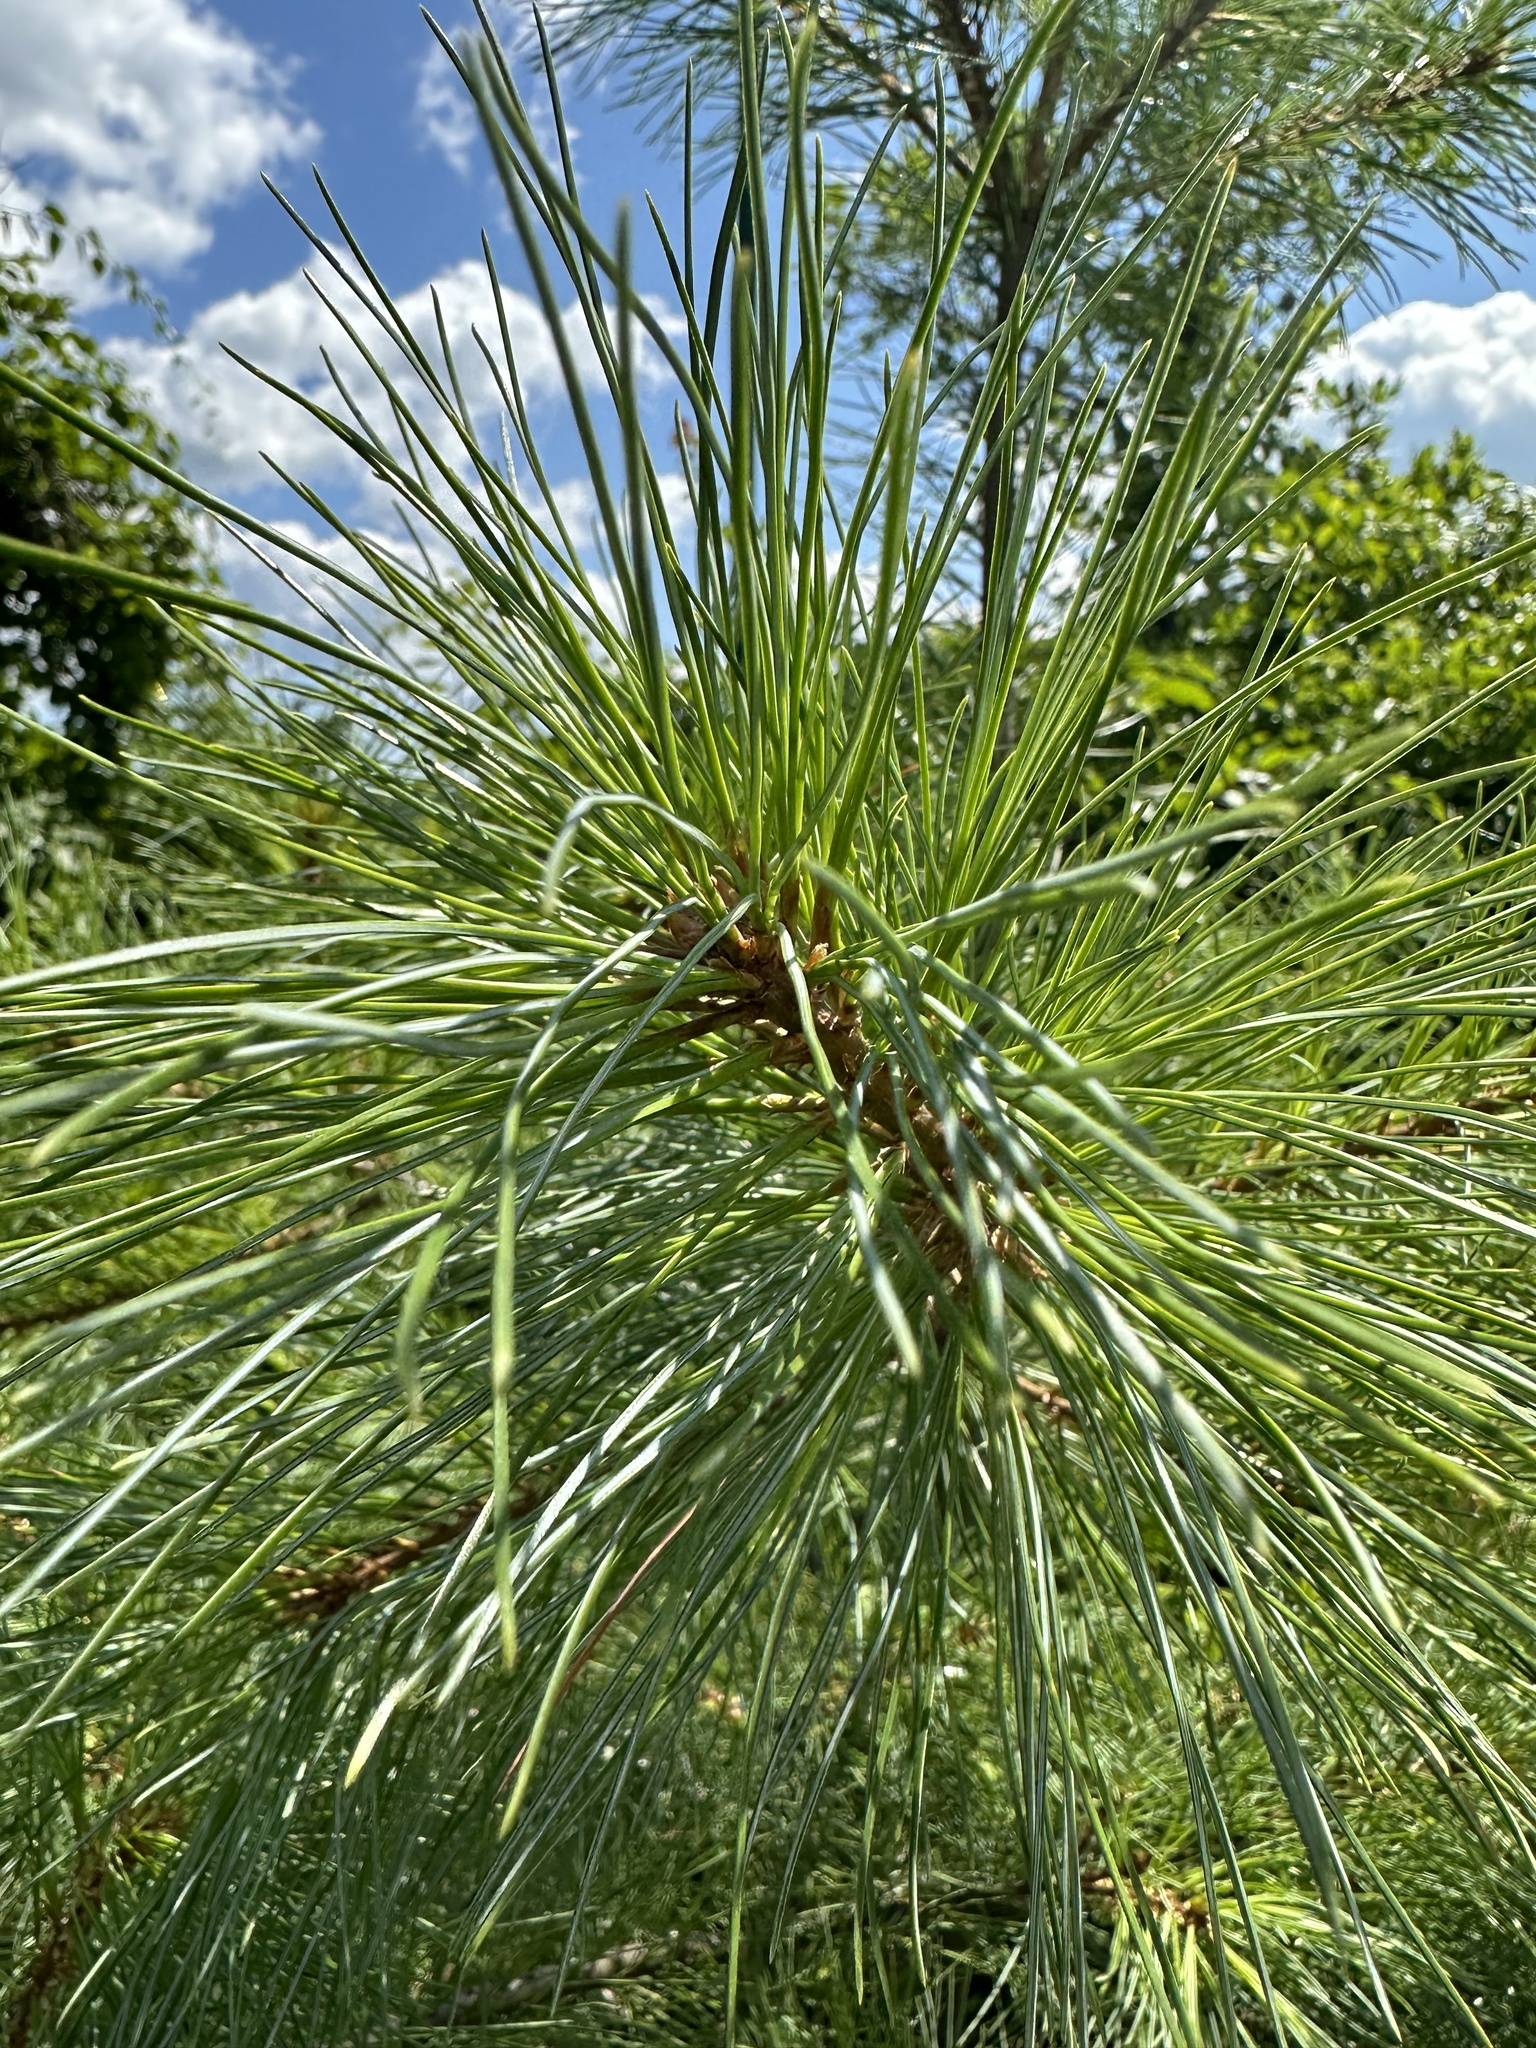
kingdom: Plantae
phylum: Tracheophyta
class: Pinopsida
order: Pinales
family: Pinaceae
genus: Pinus
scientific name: Pinus strobus
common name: Weymouth pine
